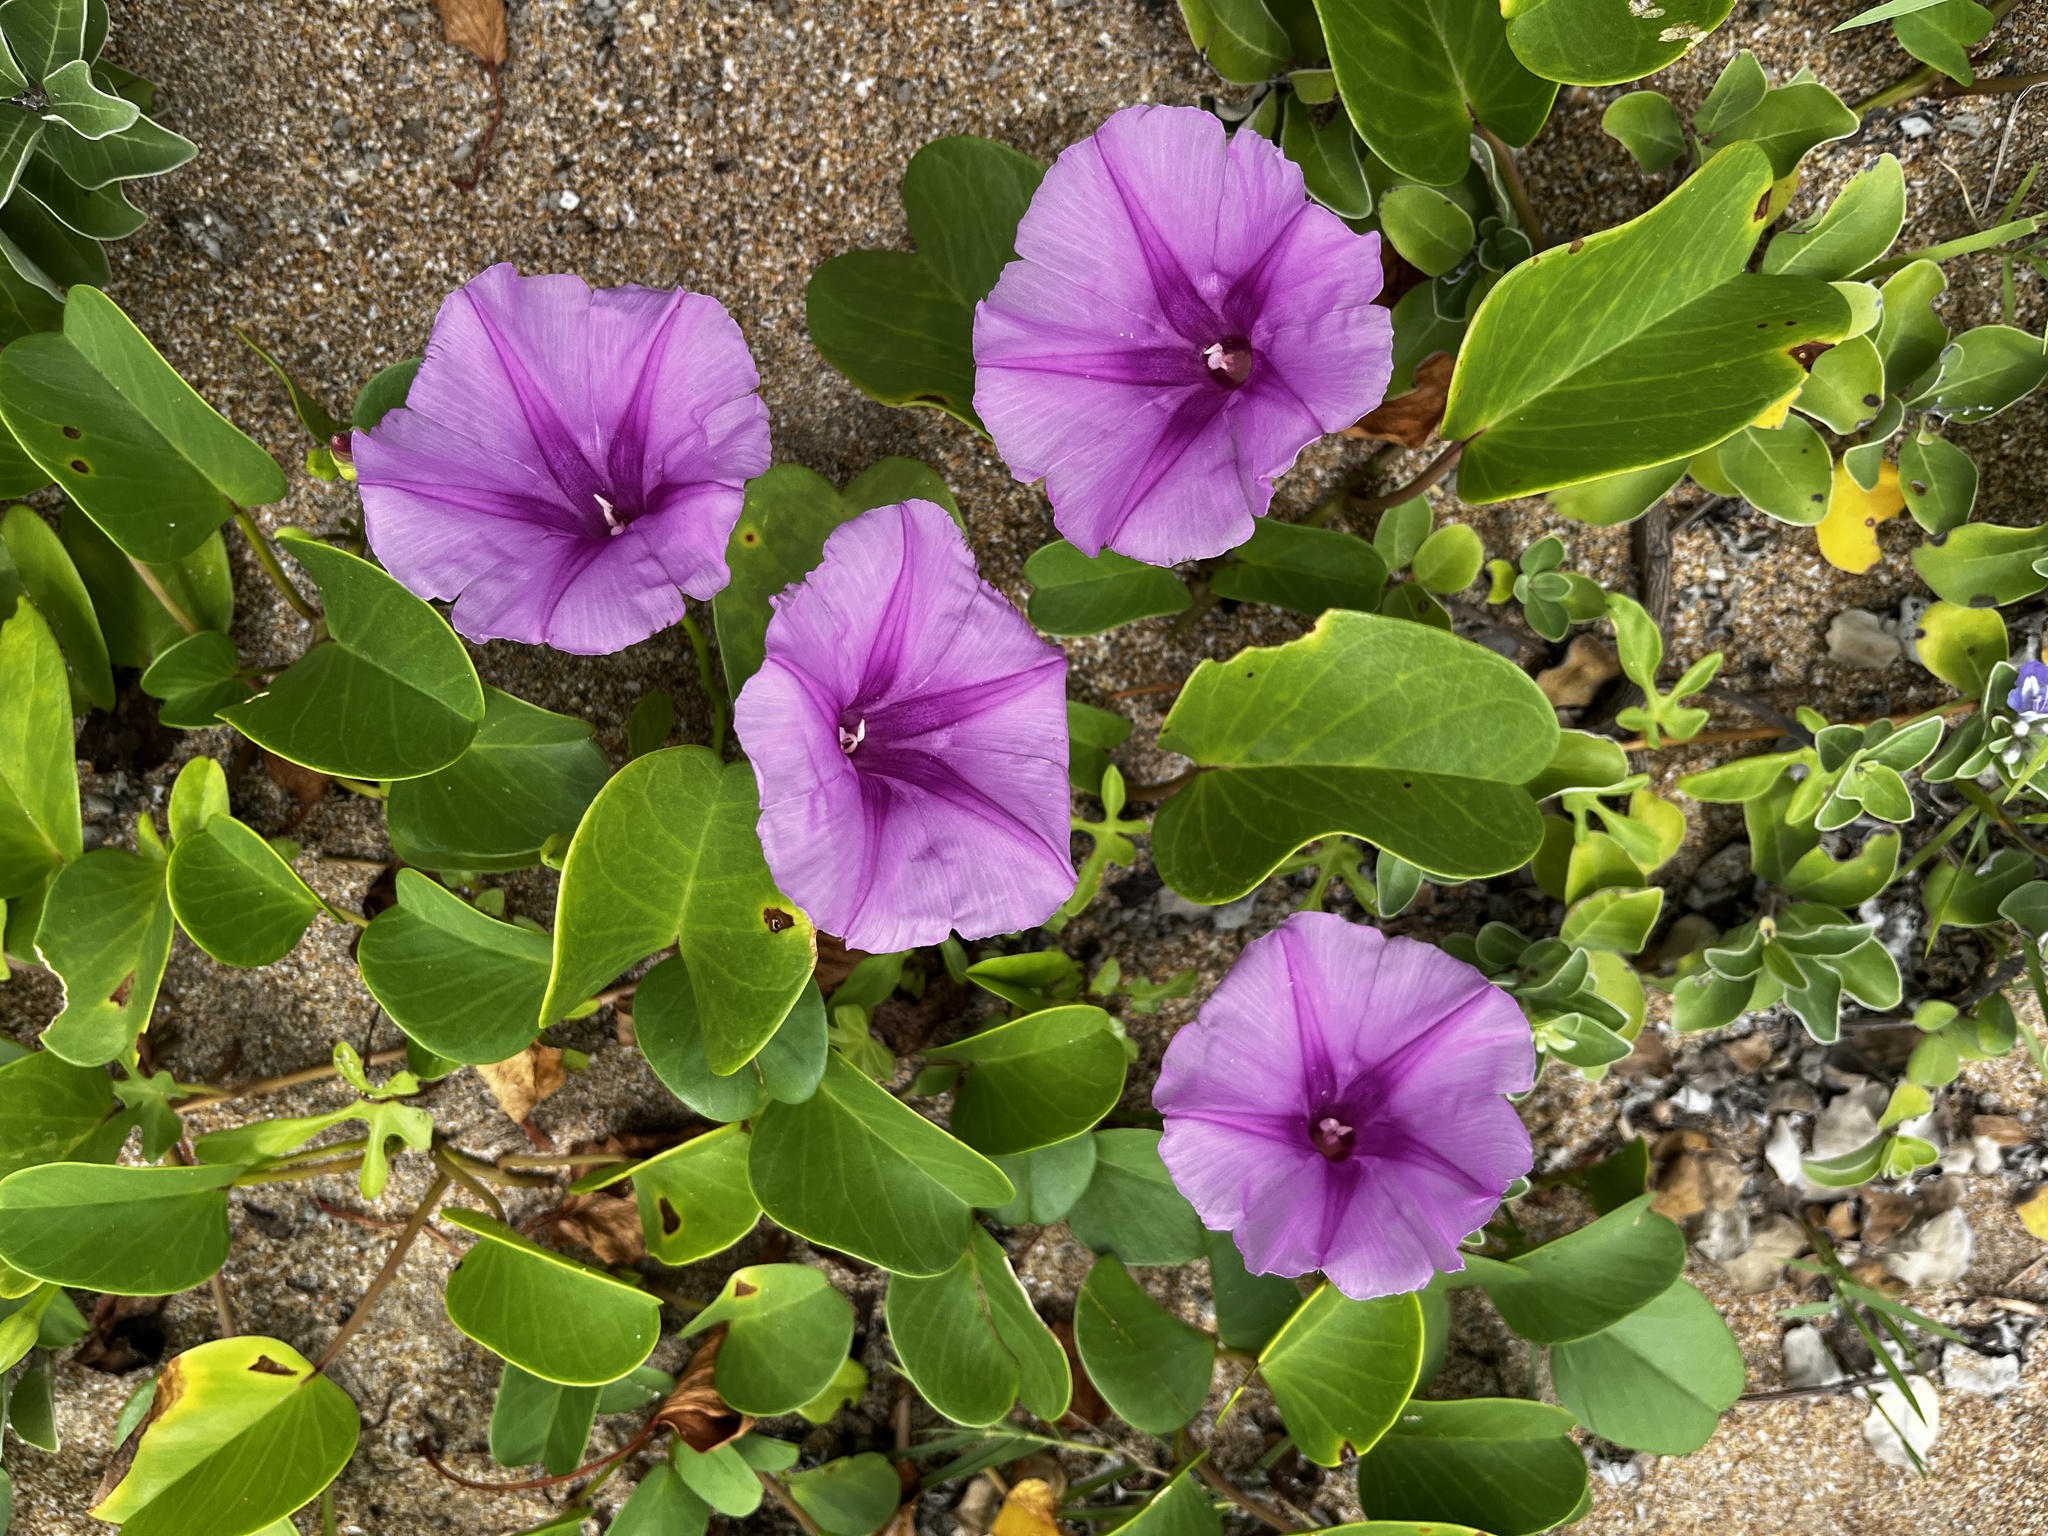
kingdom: Plantae
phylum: Tracheophyta
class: Magnoliopsida
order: Solanales
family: Convolvulaceae
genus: Ipomoea
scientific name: Ipomoea pes-caprae
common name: Beach morning glory
